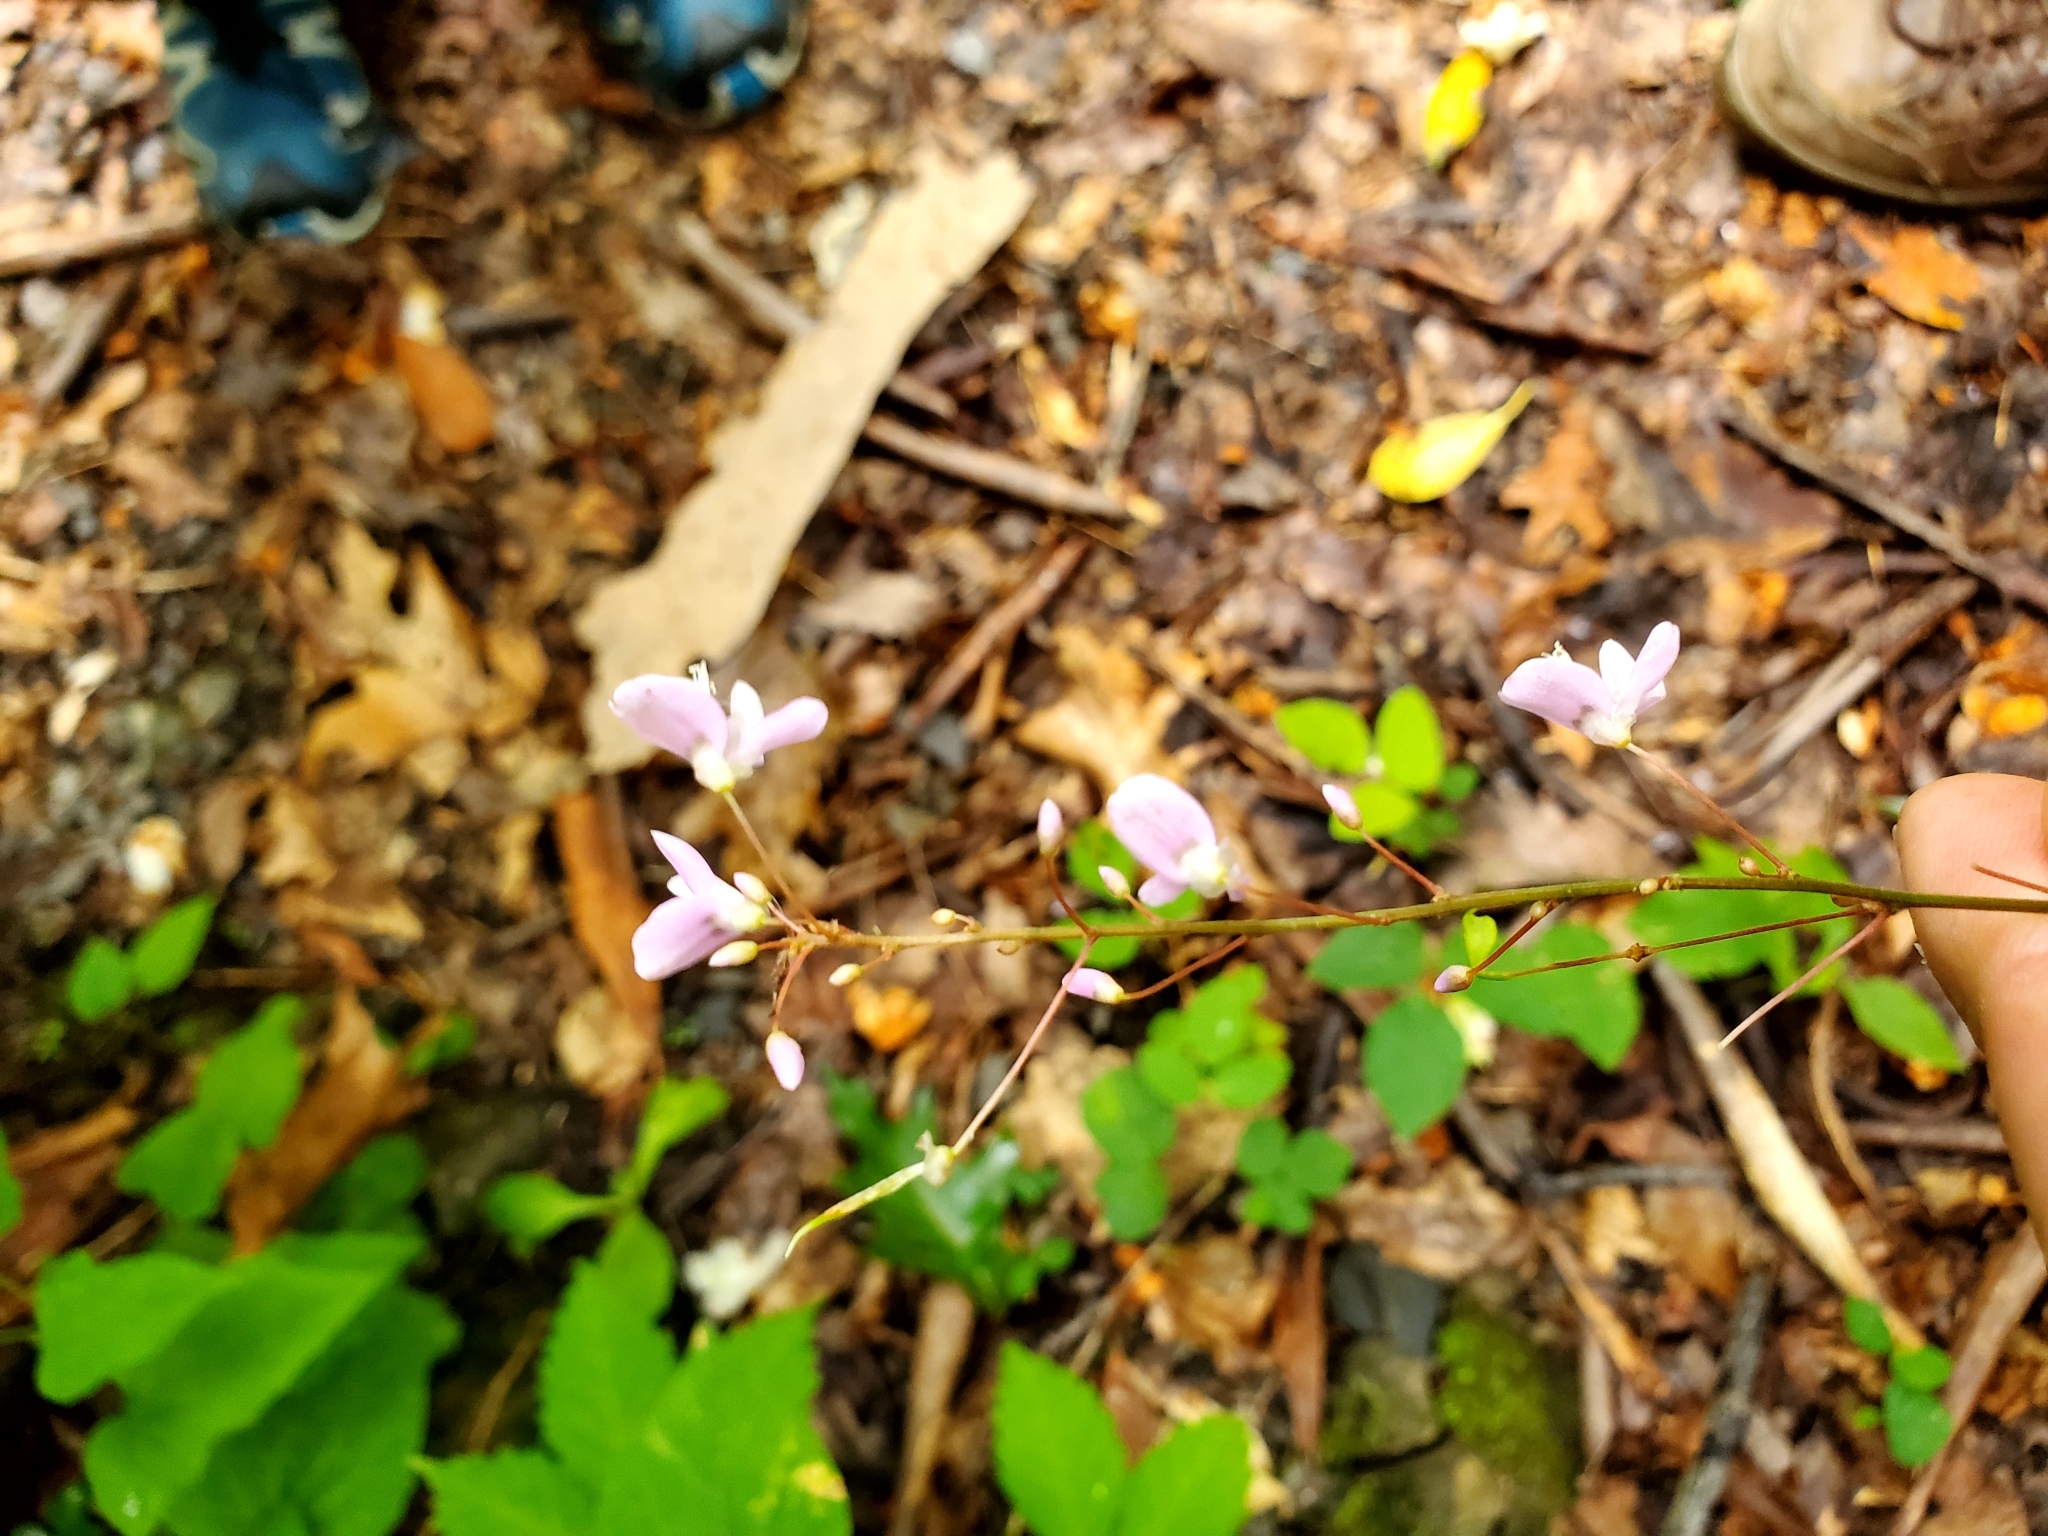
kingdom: Plantae
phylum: Tracheophyta
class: Magnoliopsida
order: Fabales
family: Fabaceae
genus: Hylodesmum
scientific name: Hylodesmum nudiflorum
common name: Bare-stemmed tick-trefoil
